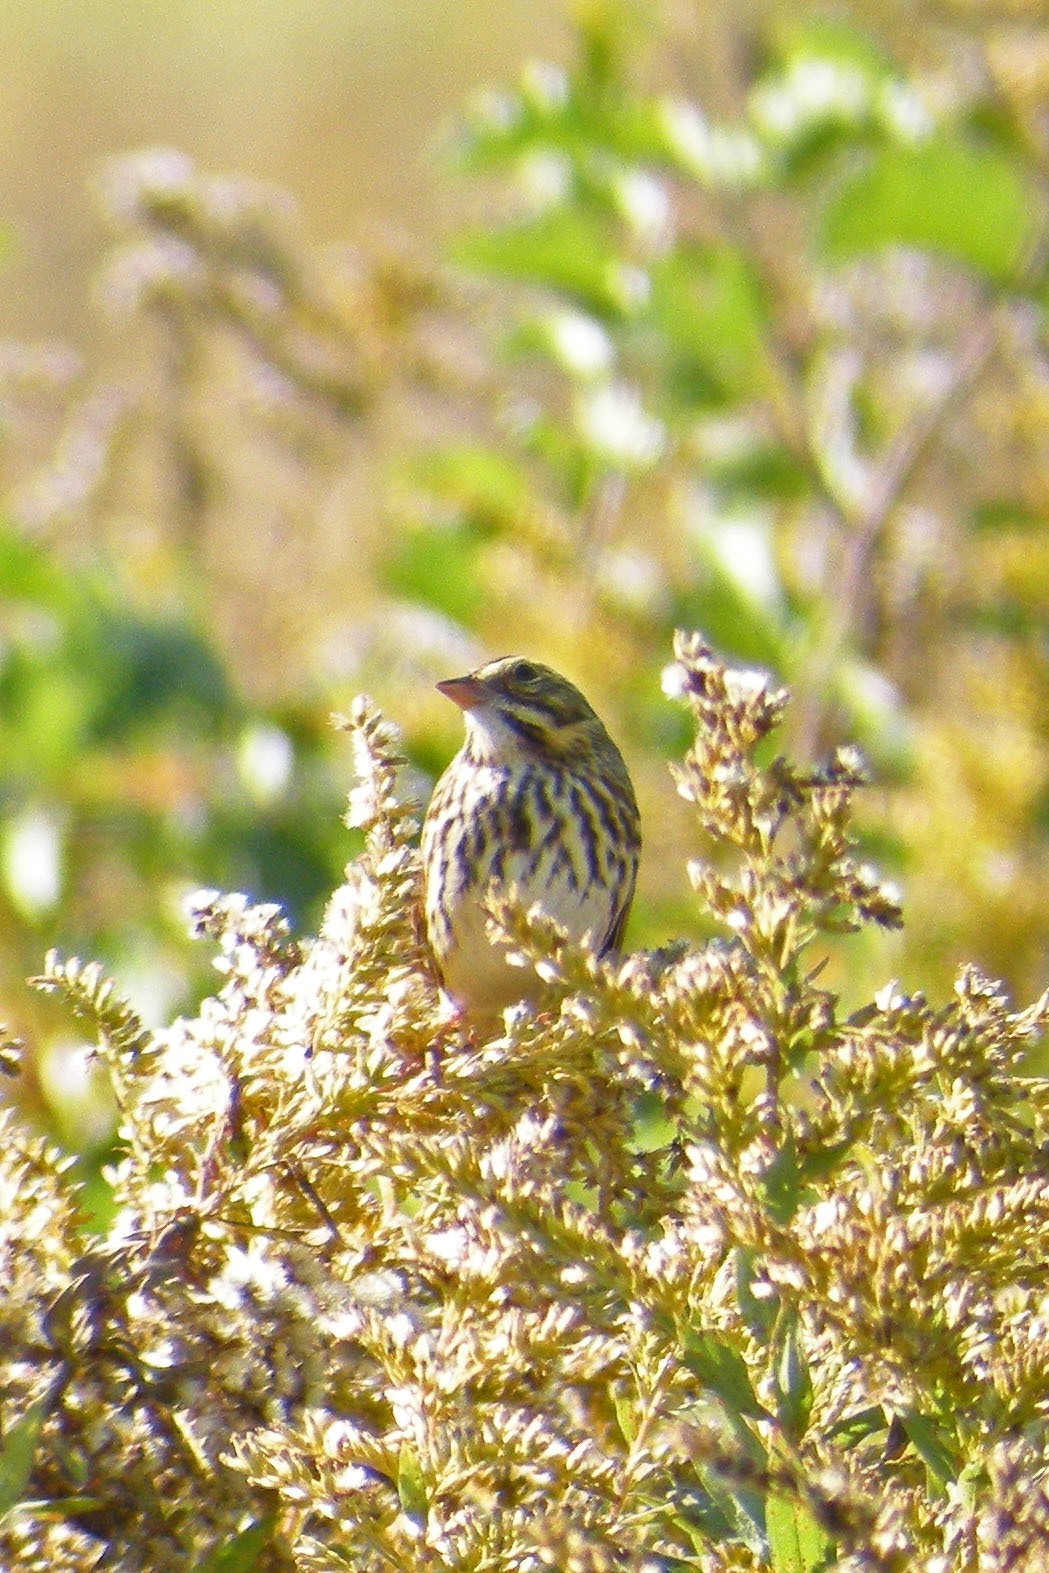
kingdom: Animalia
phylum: Chordata
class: Aves
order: Passeriformes
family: Passerellidae
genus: Passerculus
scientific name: Passerculus sandwichensis
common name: Savannah sparrow
